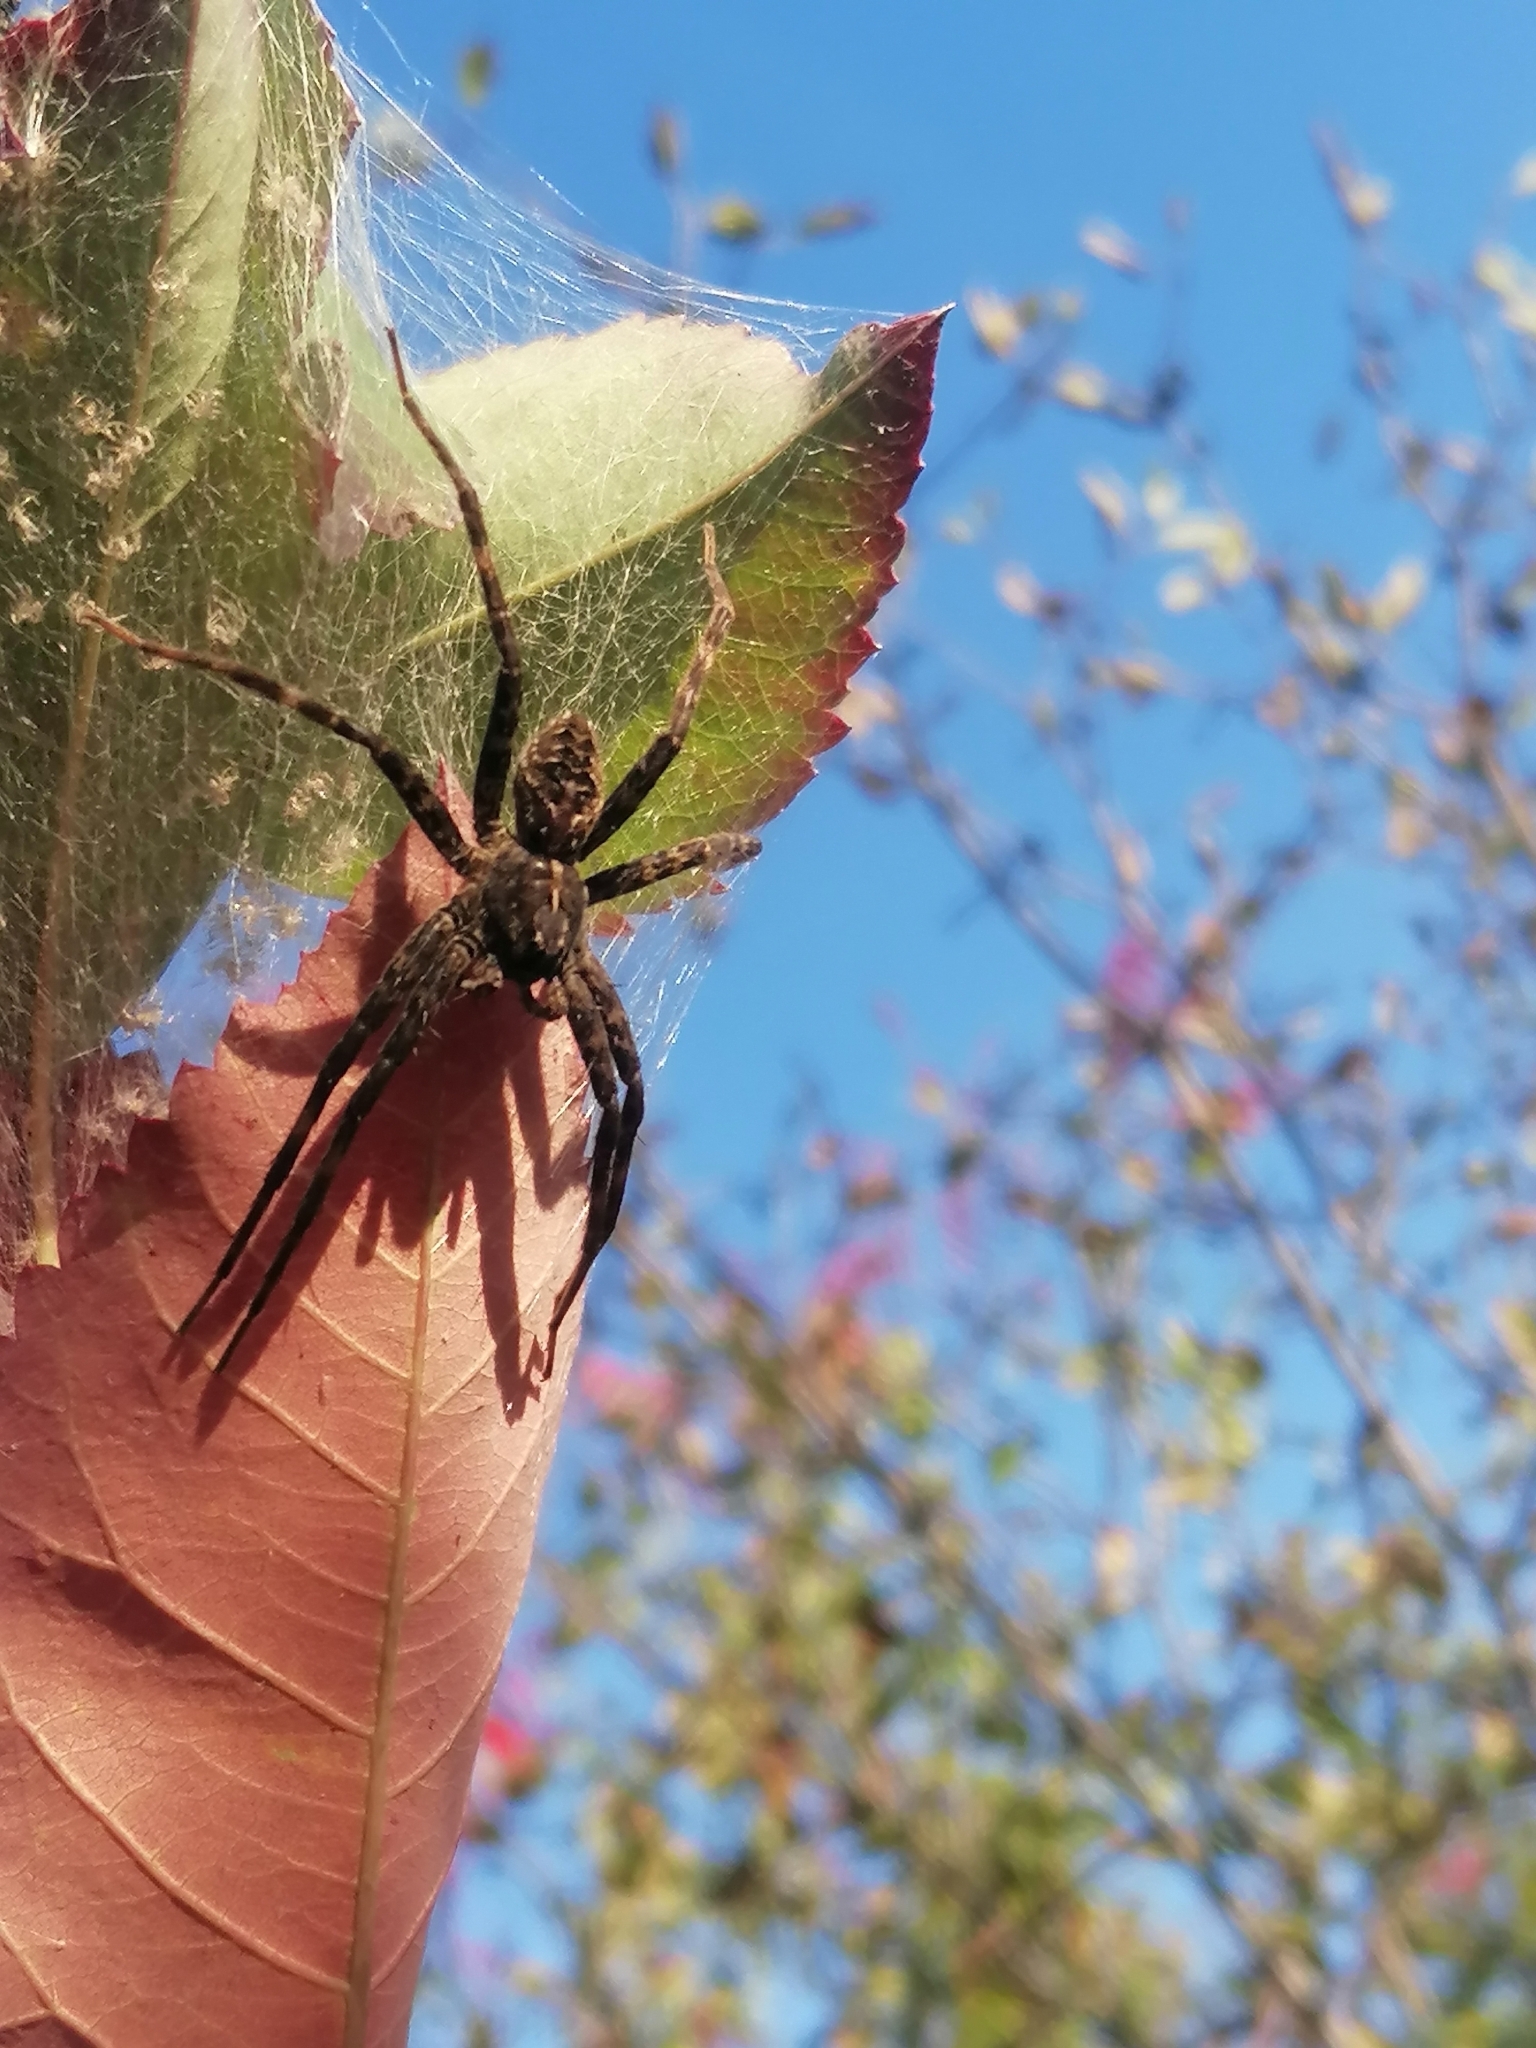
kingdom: Animalia
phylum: Arthropoda
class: Arachnida
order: Araneae
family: Pisauridae
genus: Dolomedes
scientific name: Dolomedes scriptus
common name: Striped fishing spider
